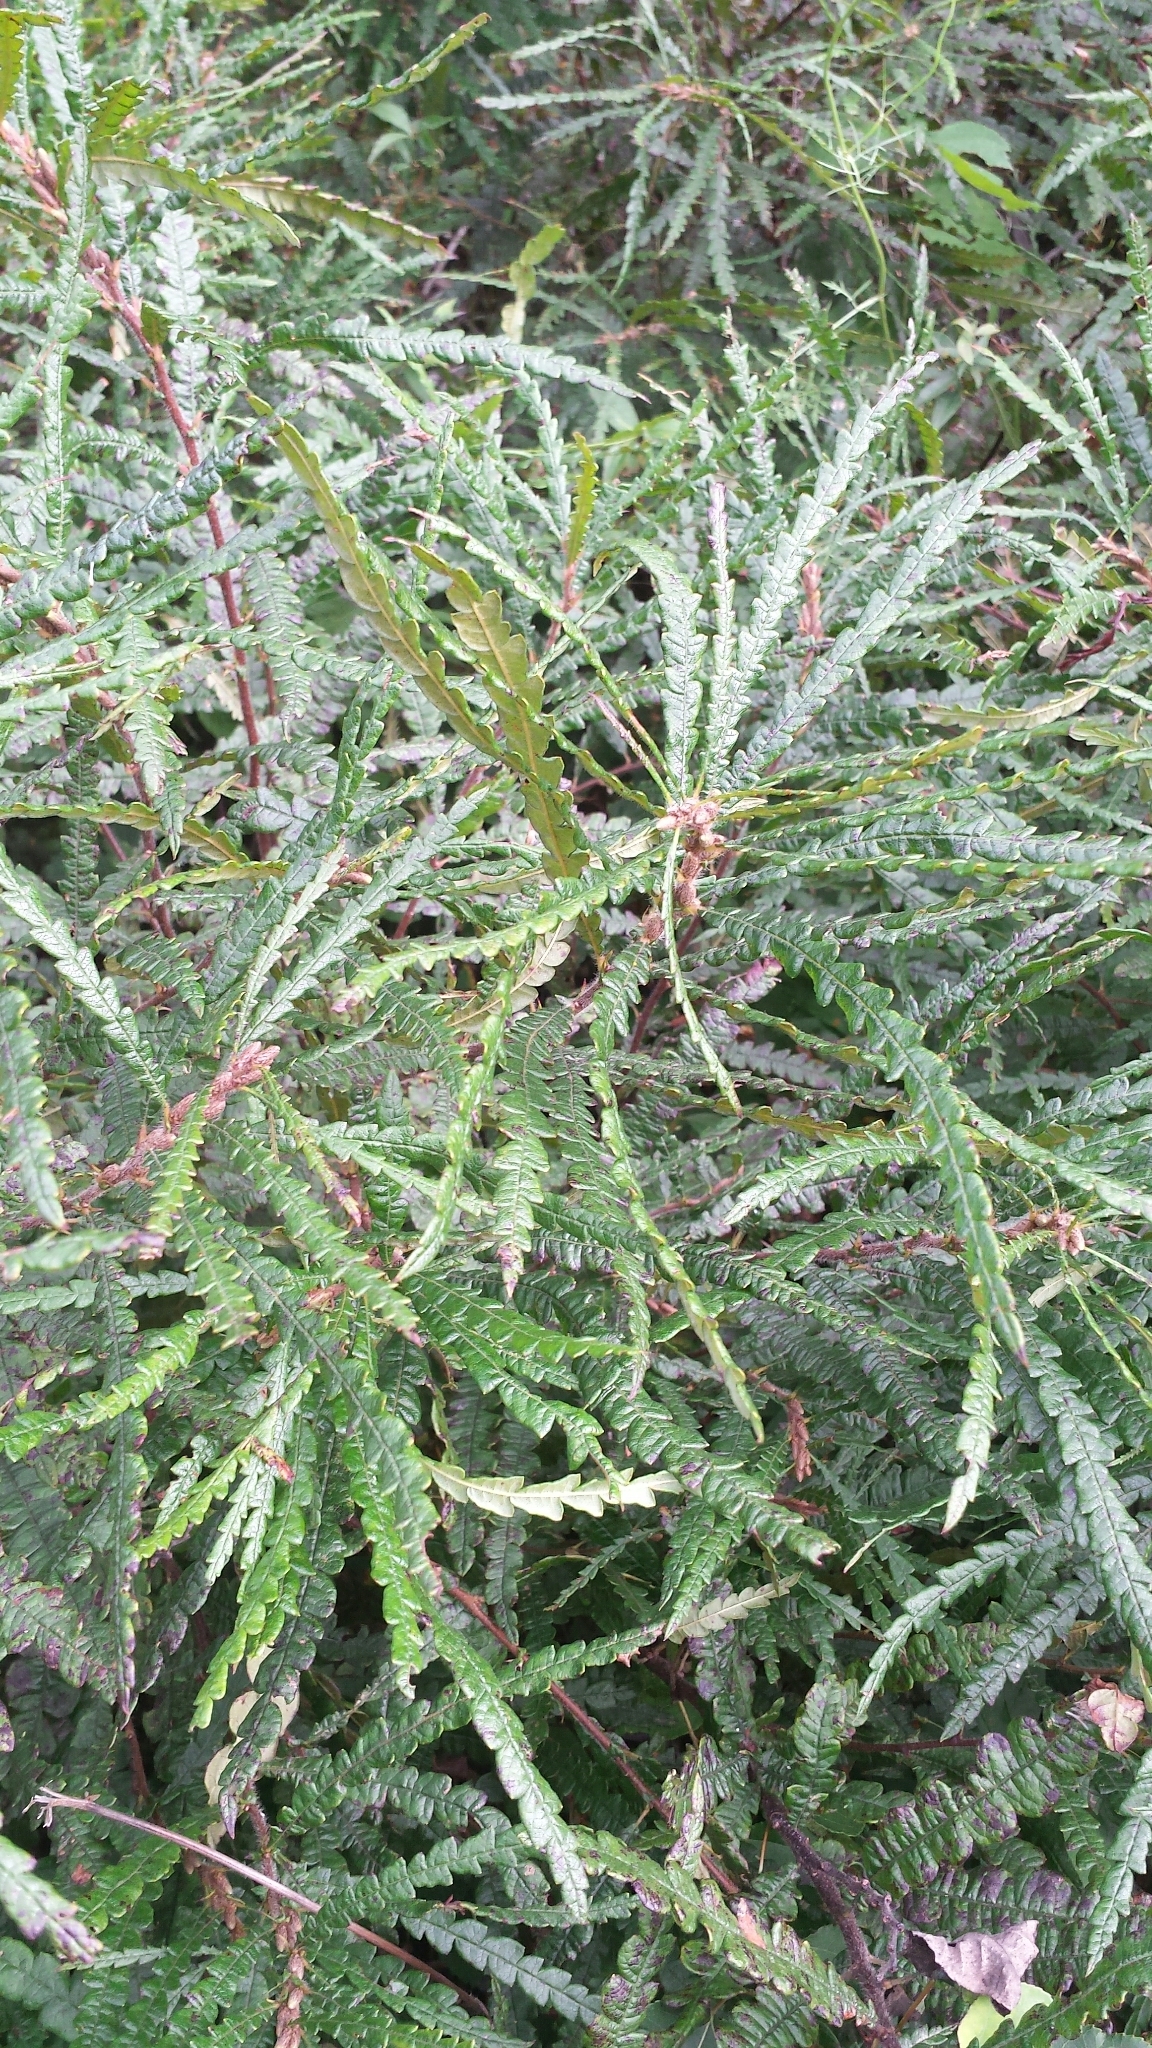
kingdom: Plantae
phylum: Tracheophyta
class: Magnoliopsida
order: Fagales
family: Myricaceae
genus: Comptonia
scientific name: Comptonia peregrina
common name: Sweet-fern
